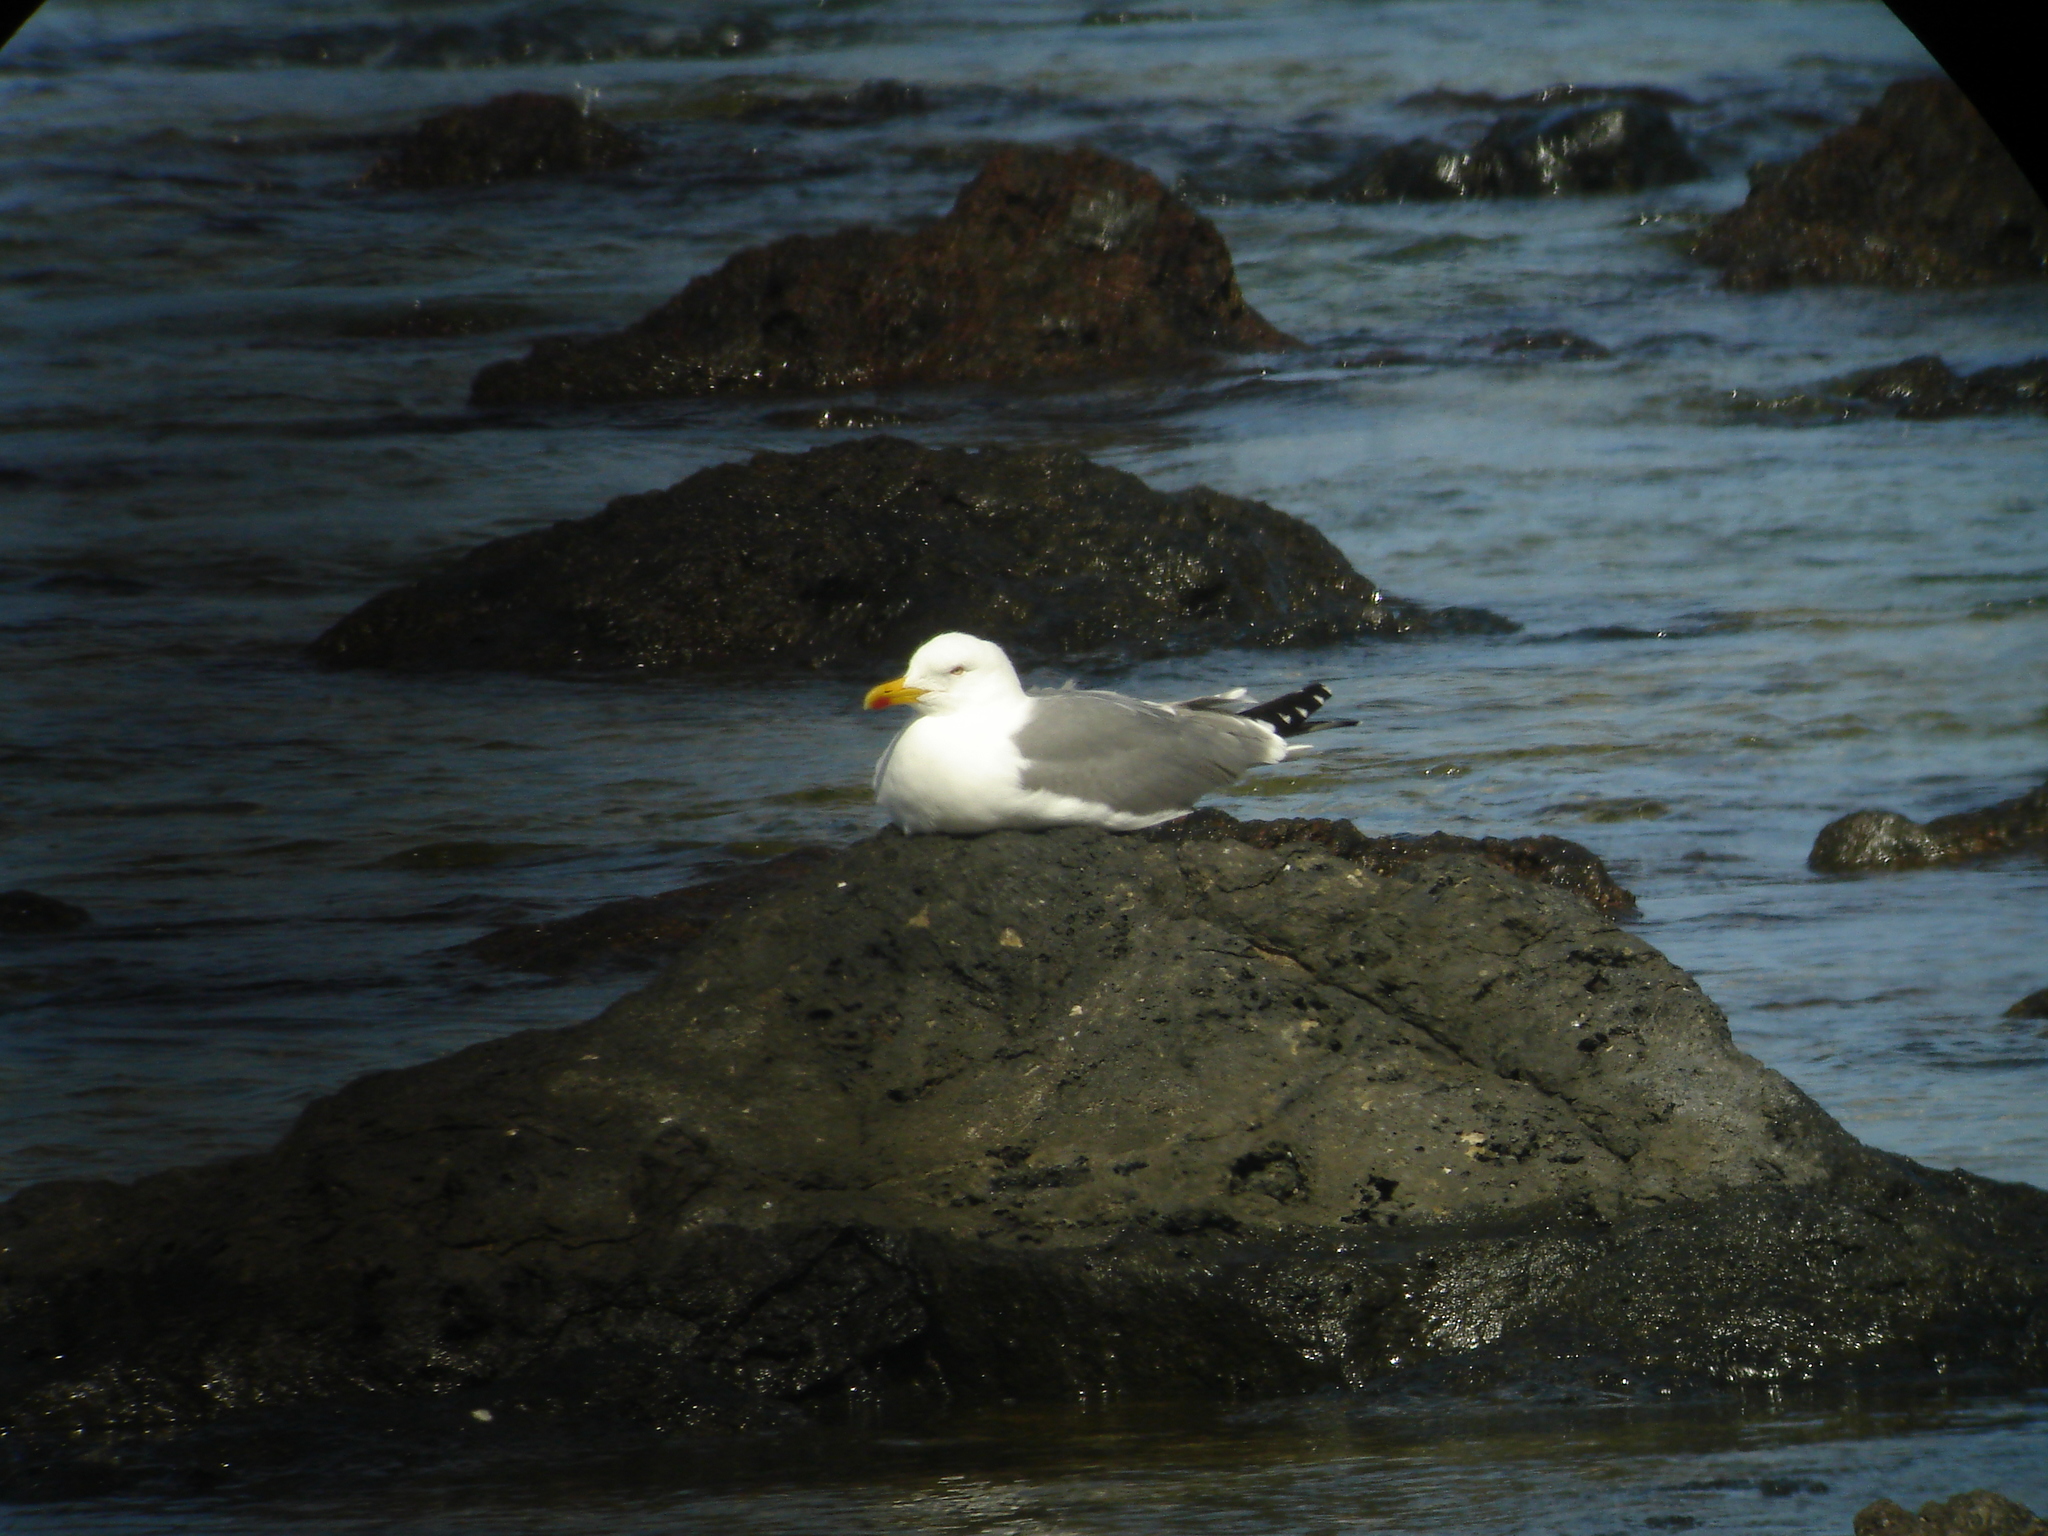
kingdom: Animalia
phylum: Chordata
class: Aves
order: Charadriiformes
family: Laridae
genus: Larus
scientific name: Larus michahellis
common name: Yellow-legged gull
